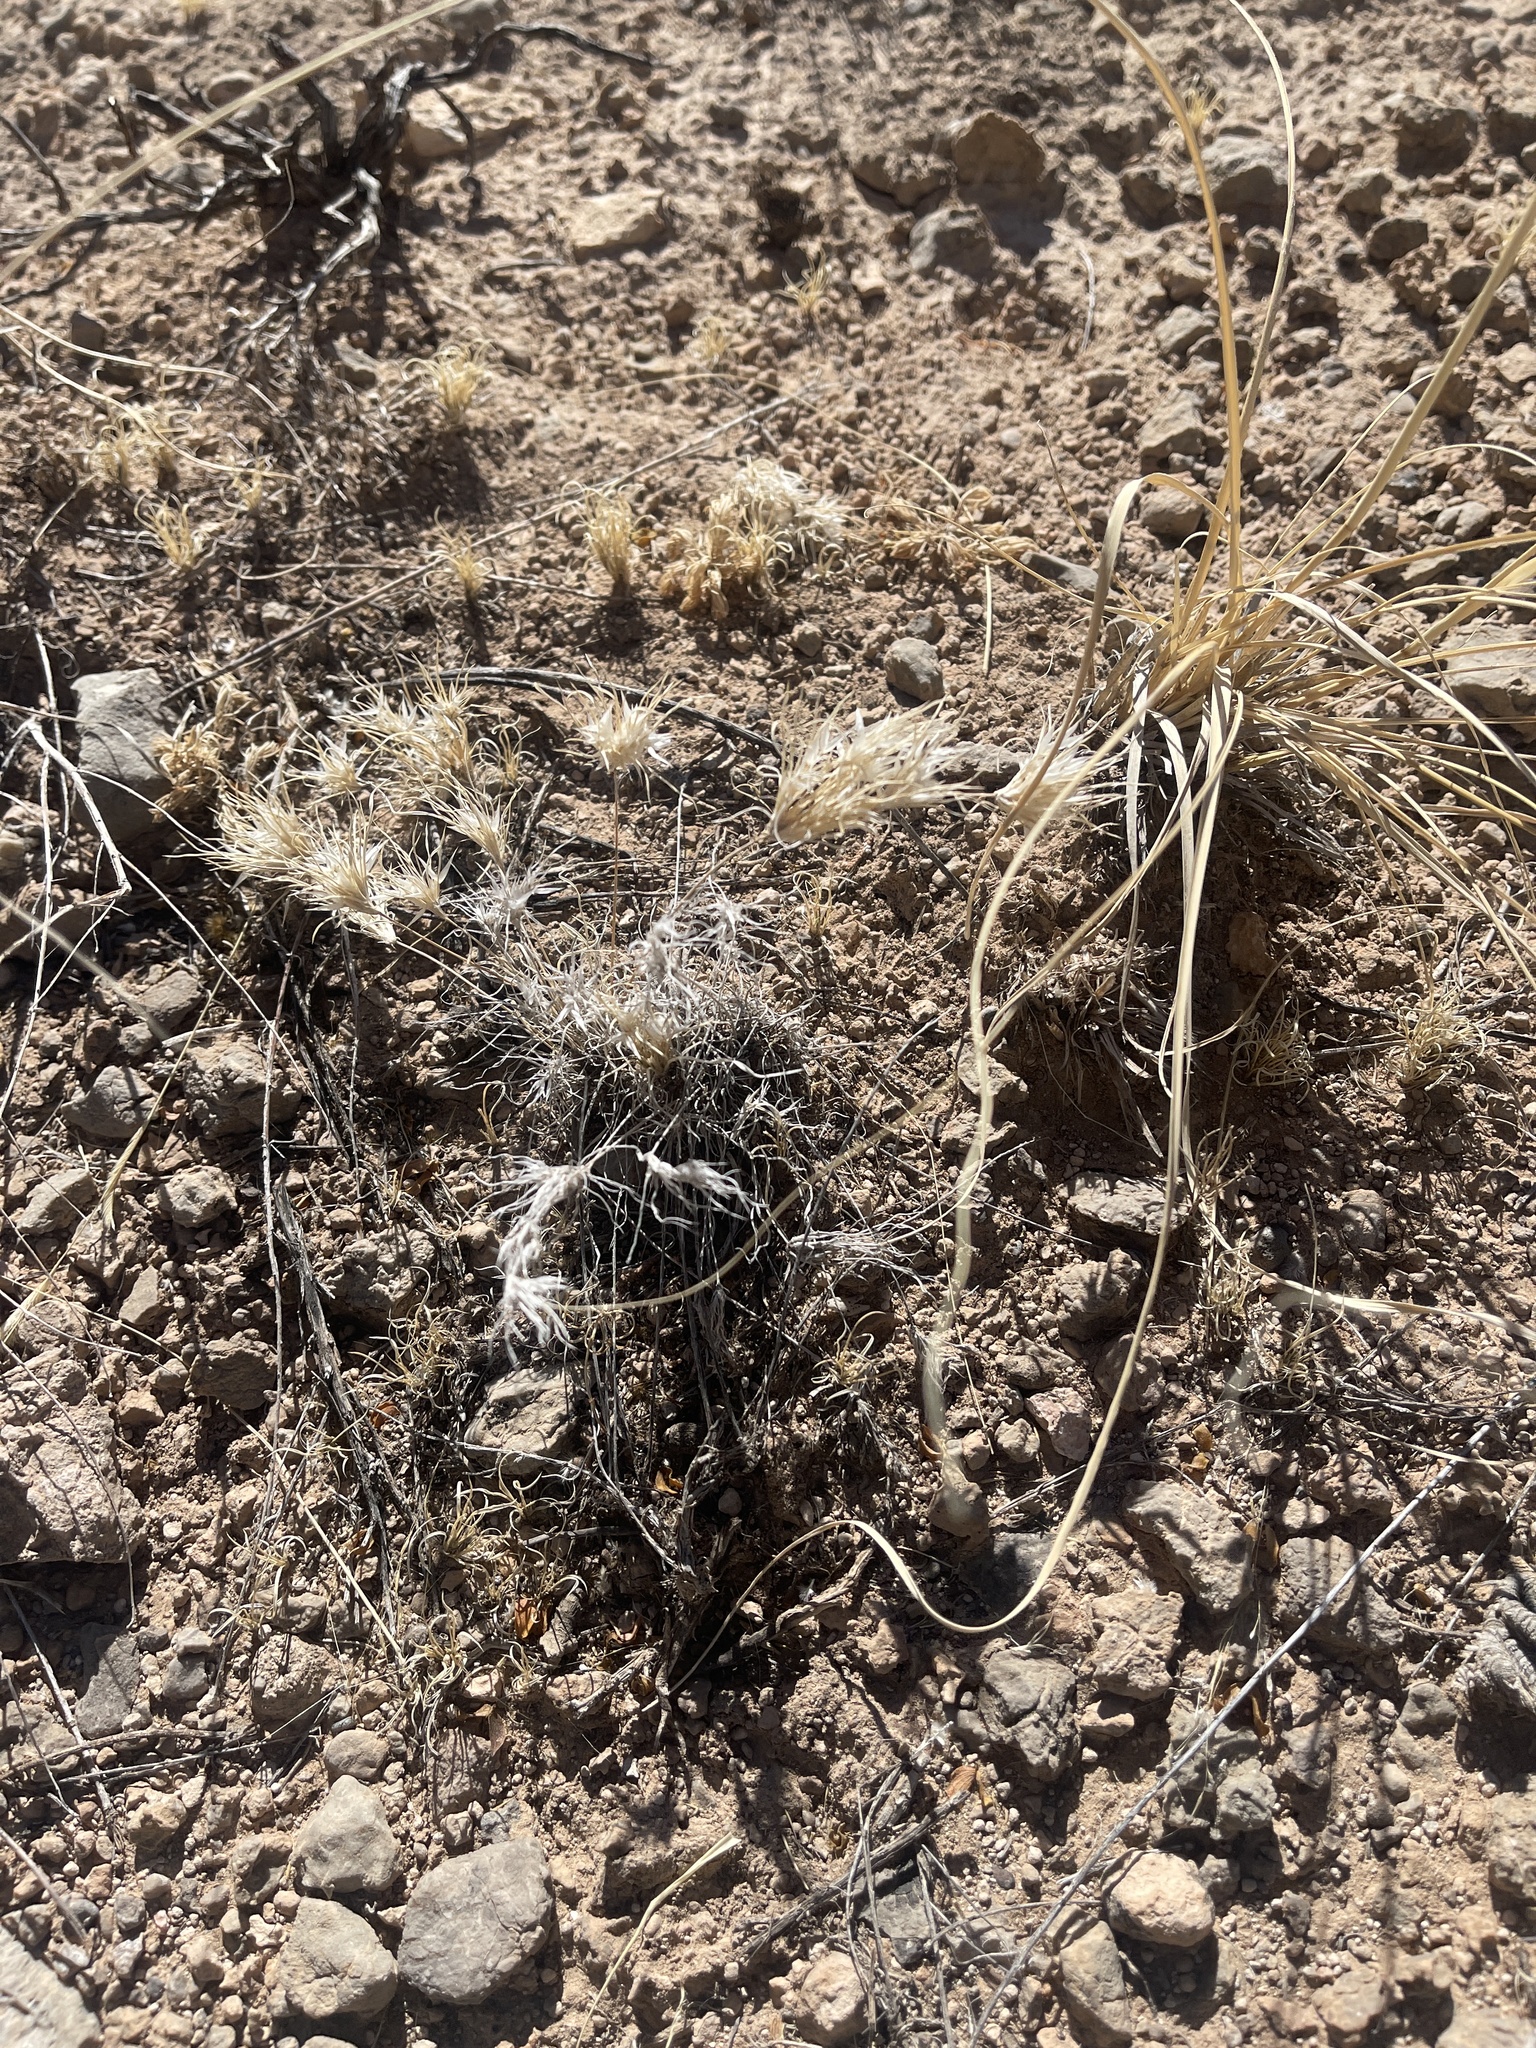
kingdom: Plantae
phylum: Tracheophyta
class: Liliopsida
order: Poales
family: Poaceae
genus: Dasyochloa
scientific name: Dasyochloa pulchella
